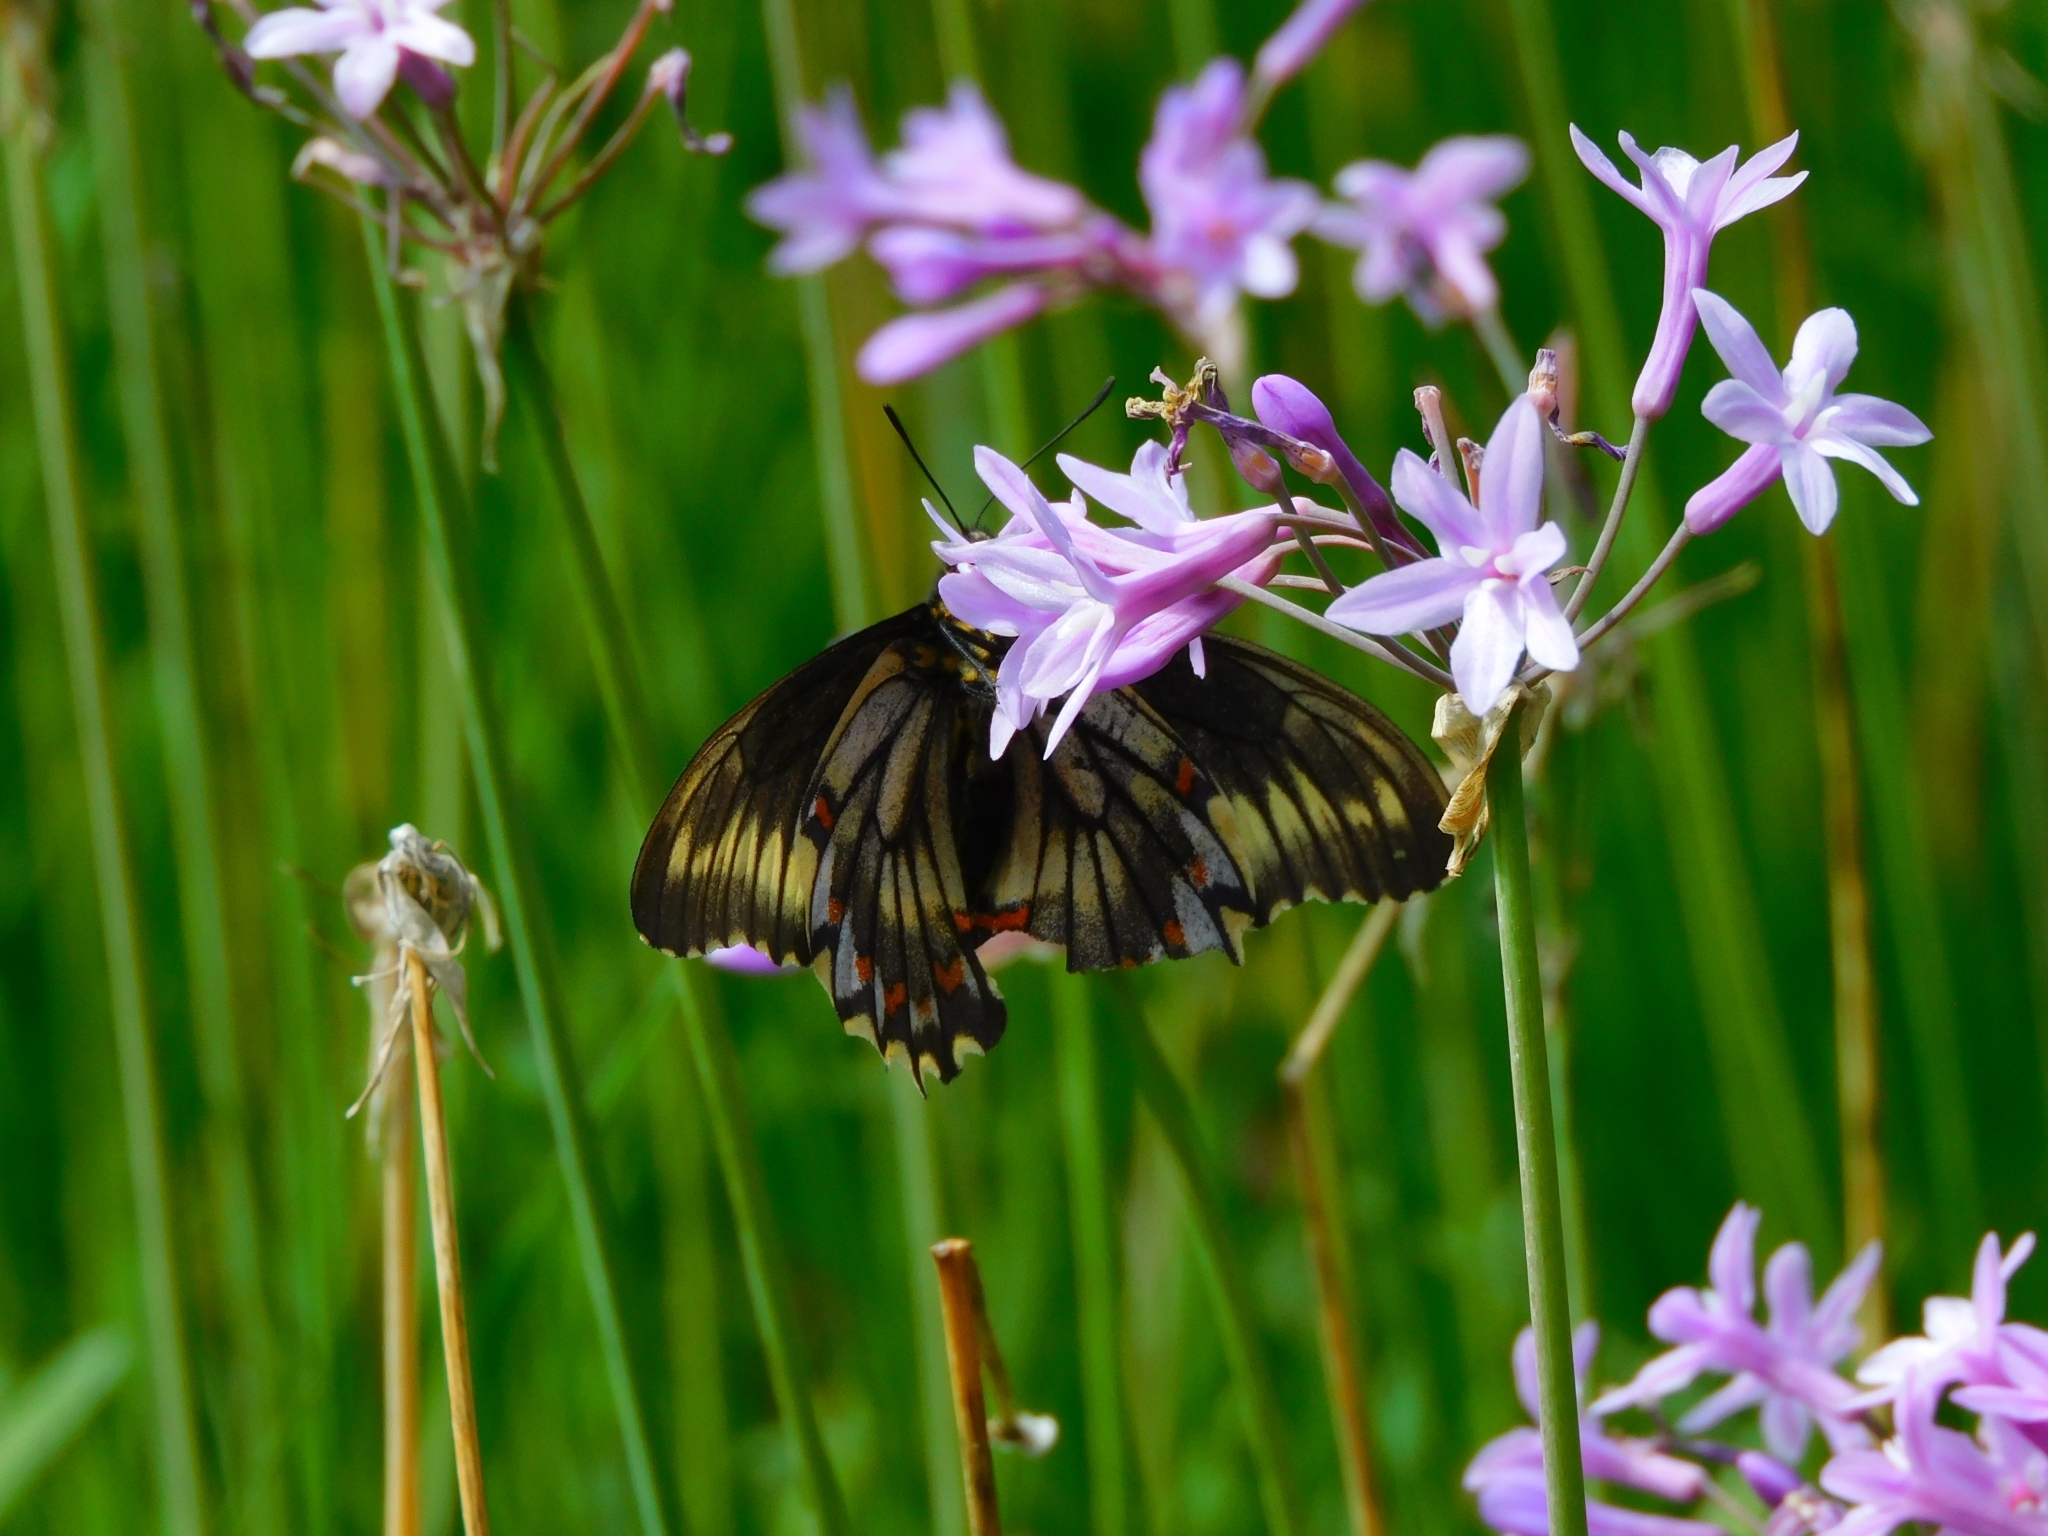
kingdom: Animalia
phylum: Arthropoda
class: Insecta
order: Lepidoptera
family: Papilionidae
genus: Battus
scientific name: Battus polydamas
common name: Polydamas swallowtail
